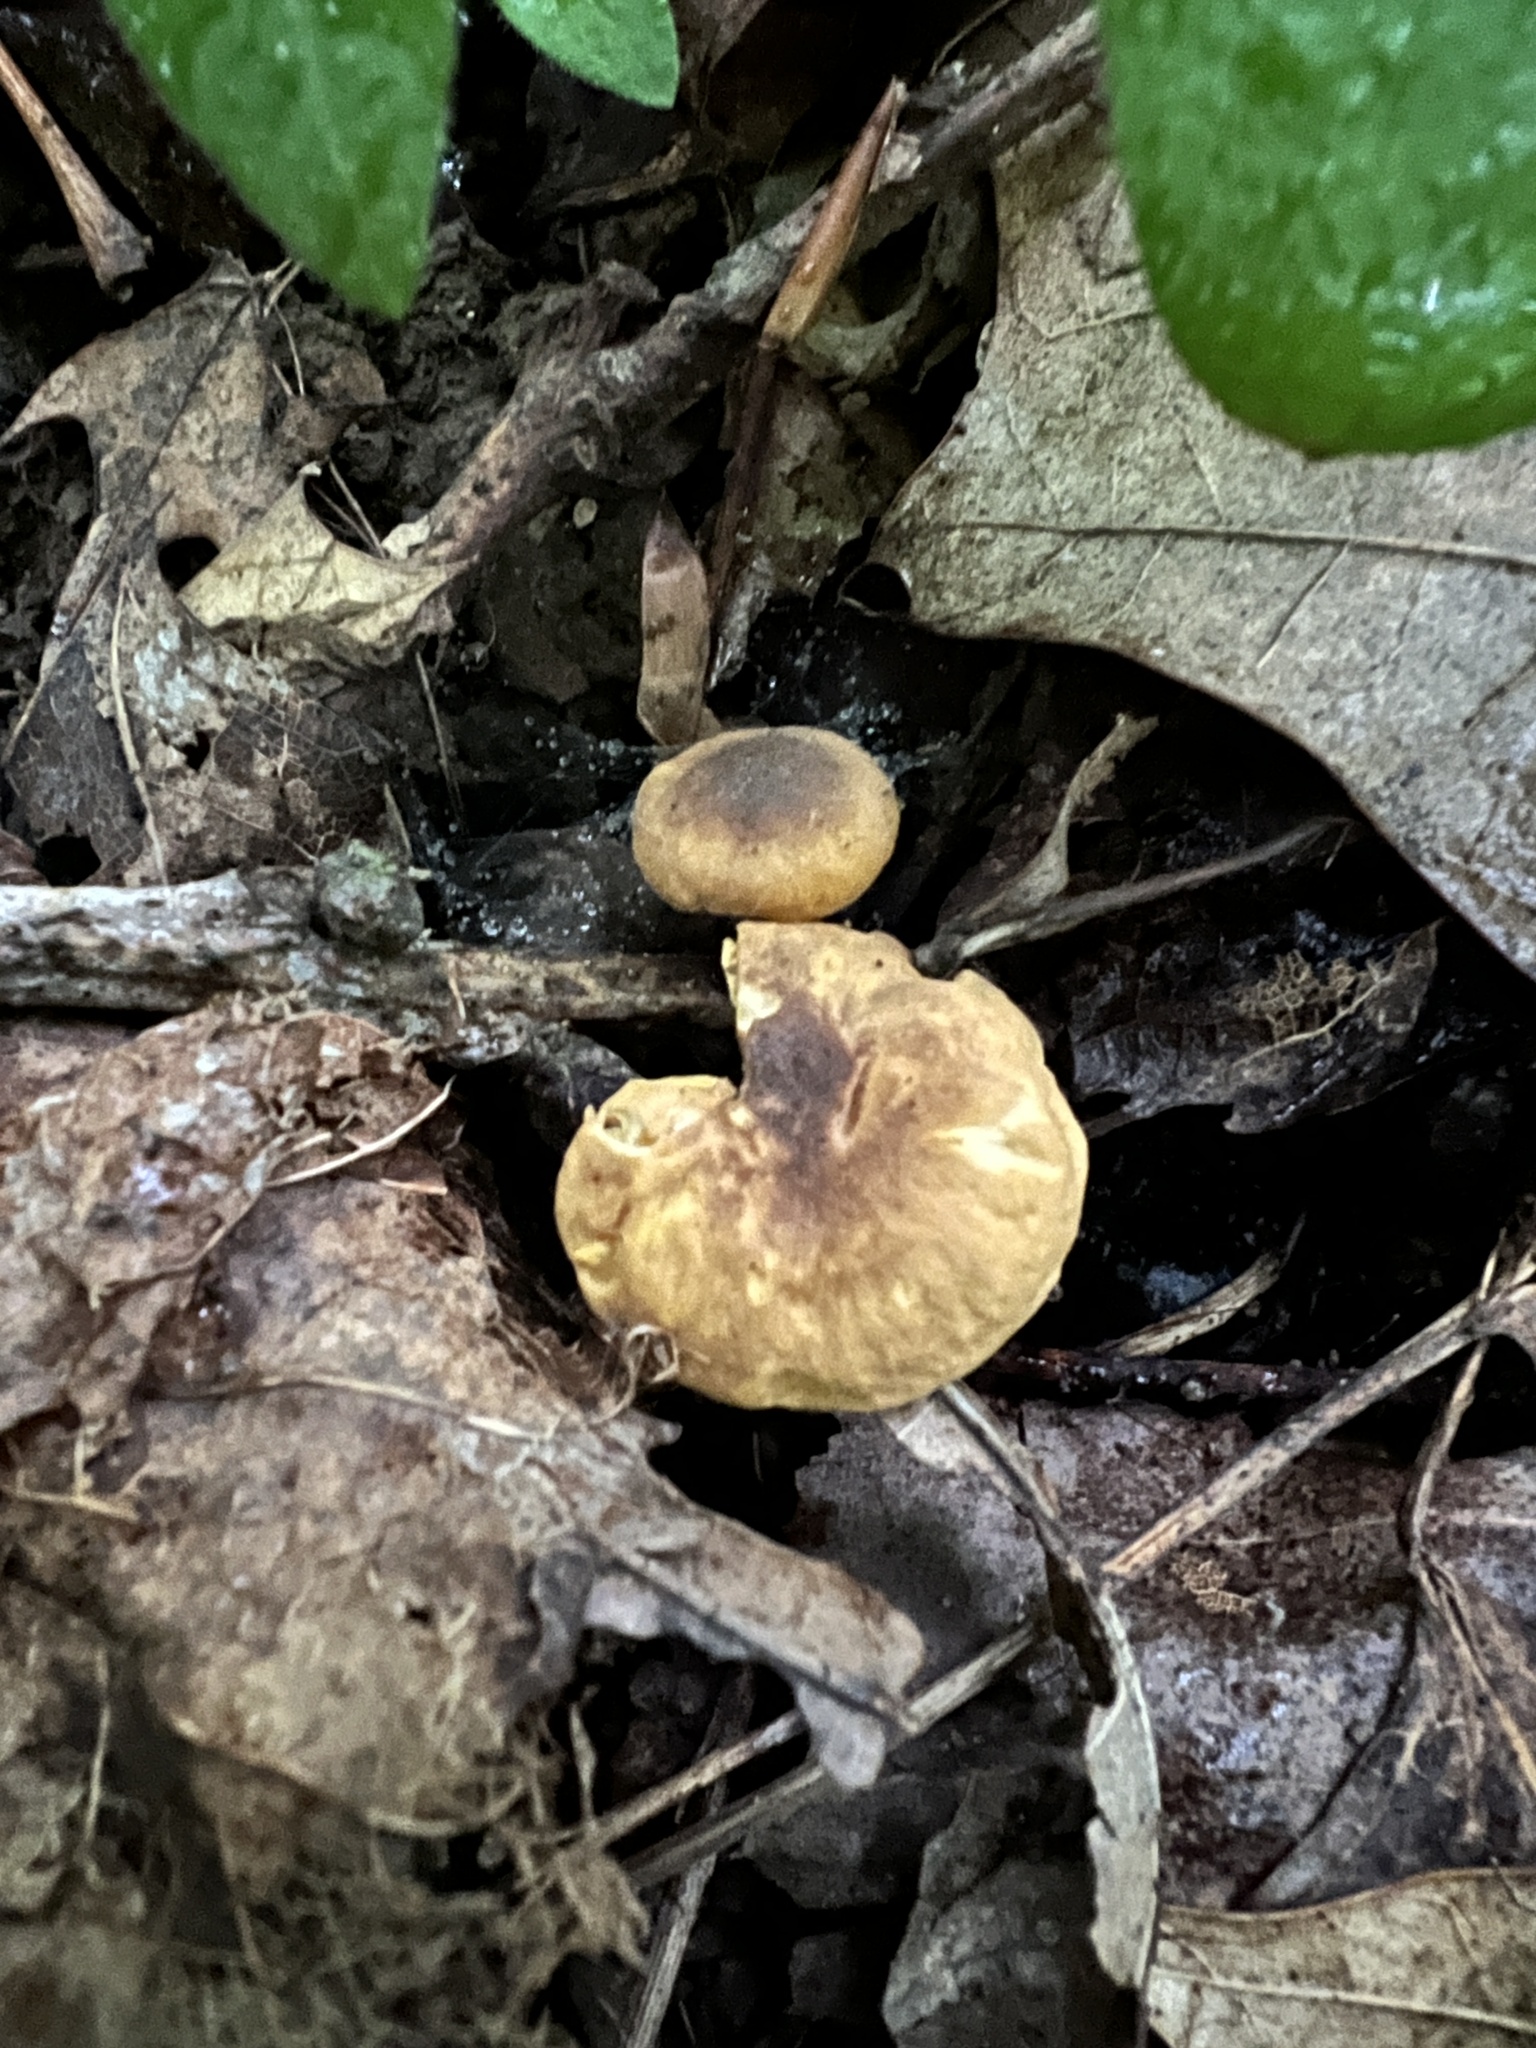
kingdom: Fungi
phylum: Basidiomycota
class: Agaricomycetes
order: Cantharellales
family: Hydnaceae
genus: Cantharellus
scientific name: Cantharellus appalachiensis
